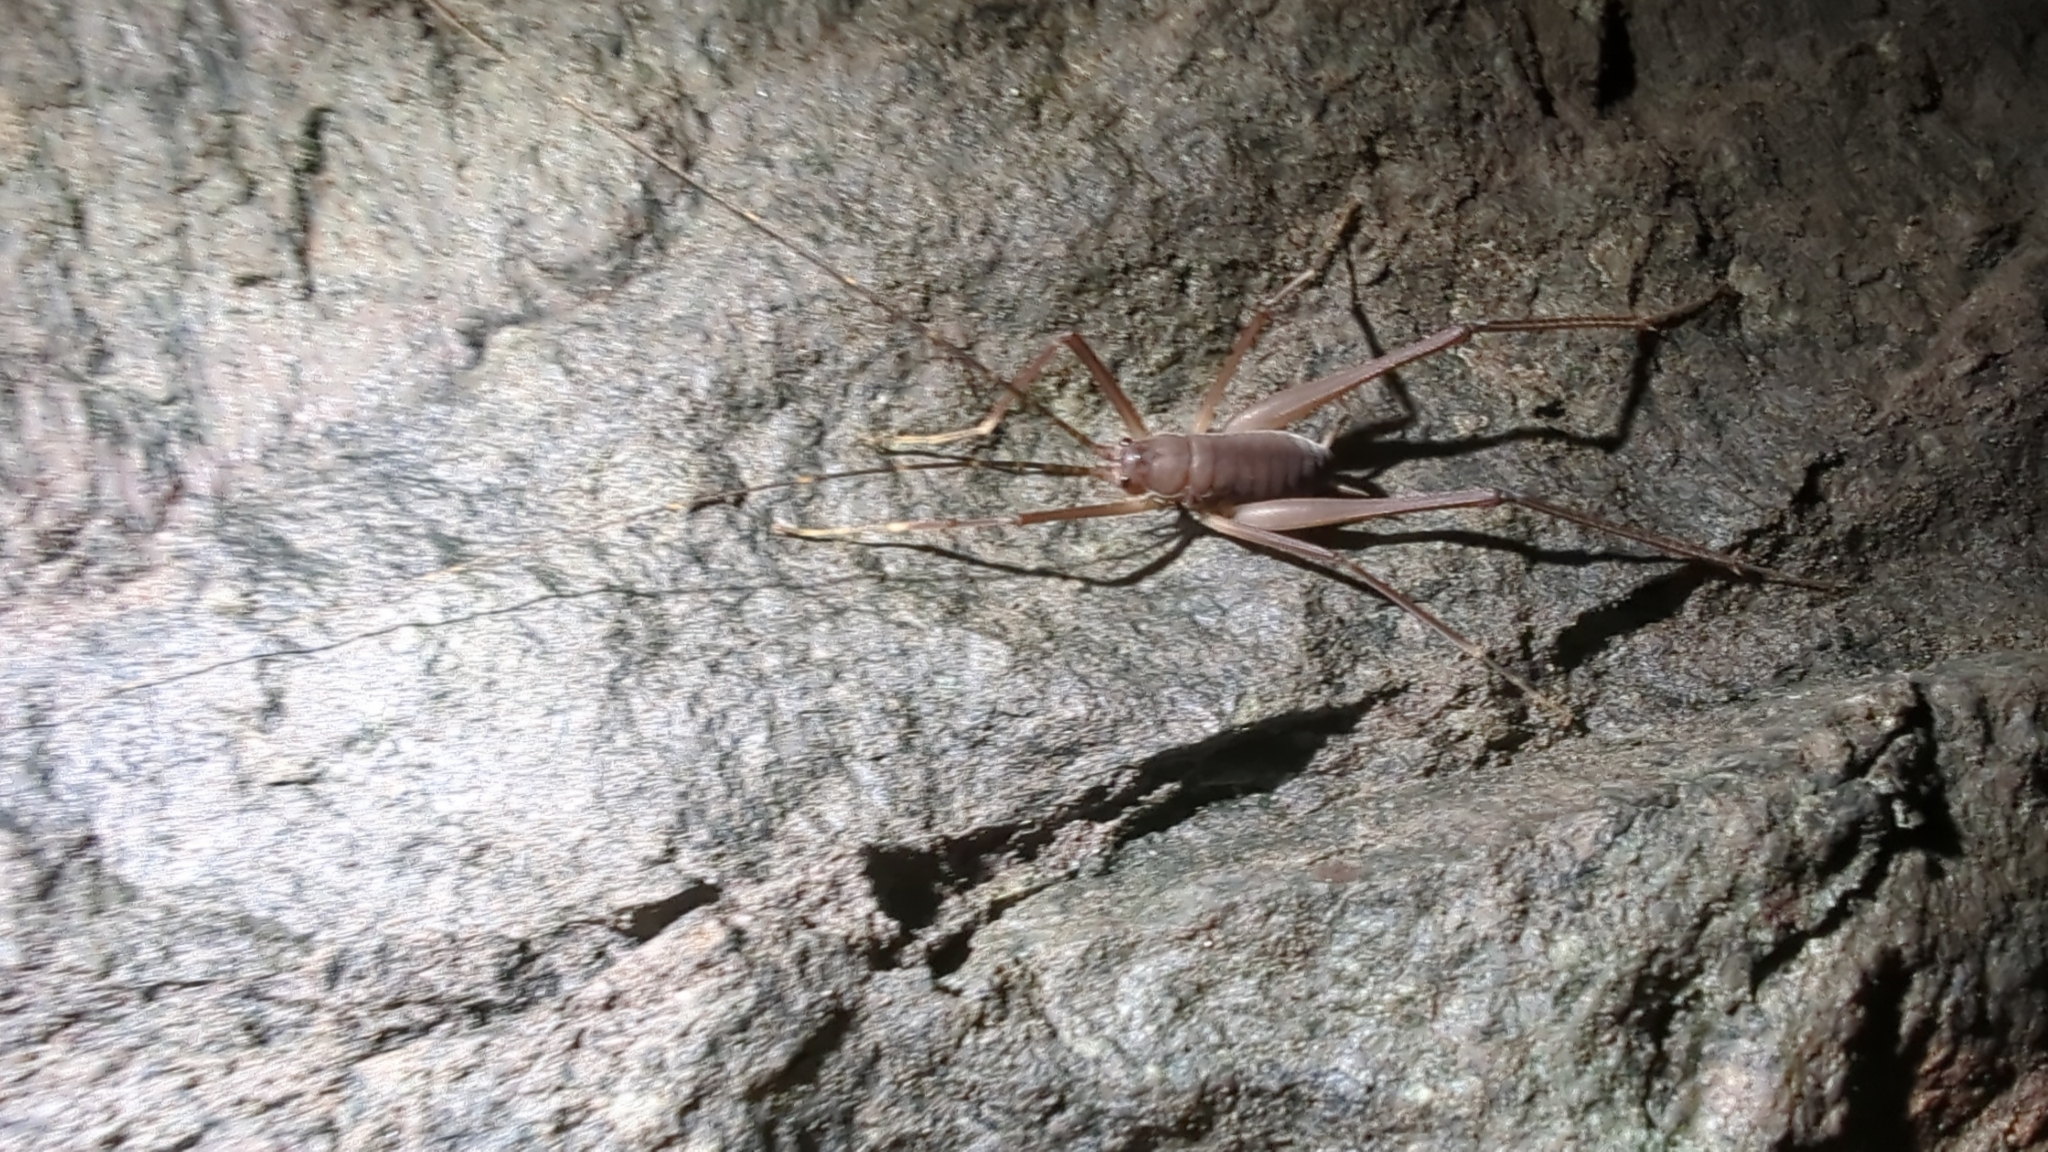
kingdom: Animalia
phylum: Arthropoda
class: Insecta
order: Orthoptera
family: Rhaphidophoridae
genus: Tropidischia
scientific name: Tropidischia xanthostoma
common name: Square-legged camel cricket
